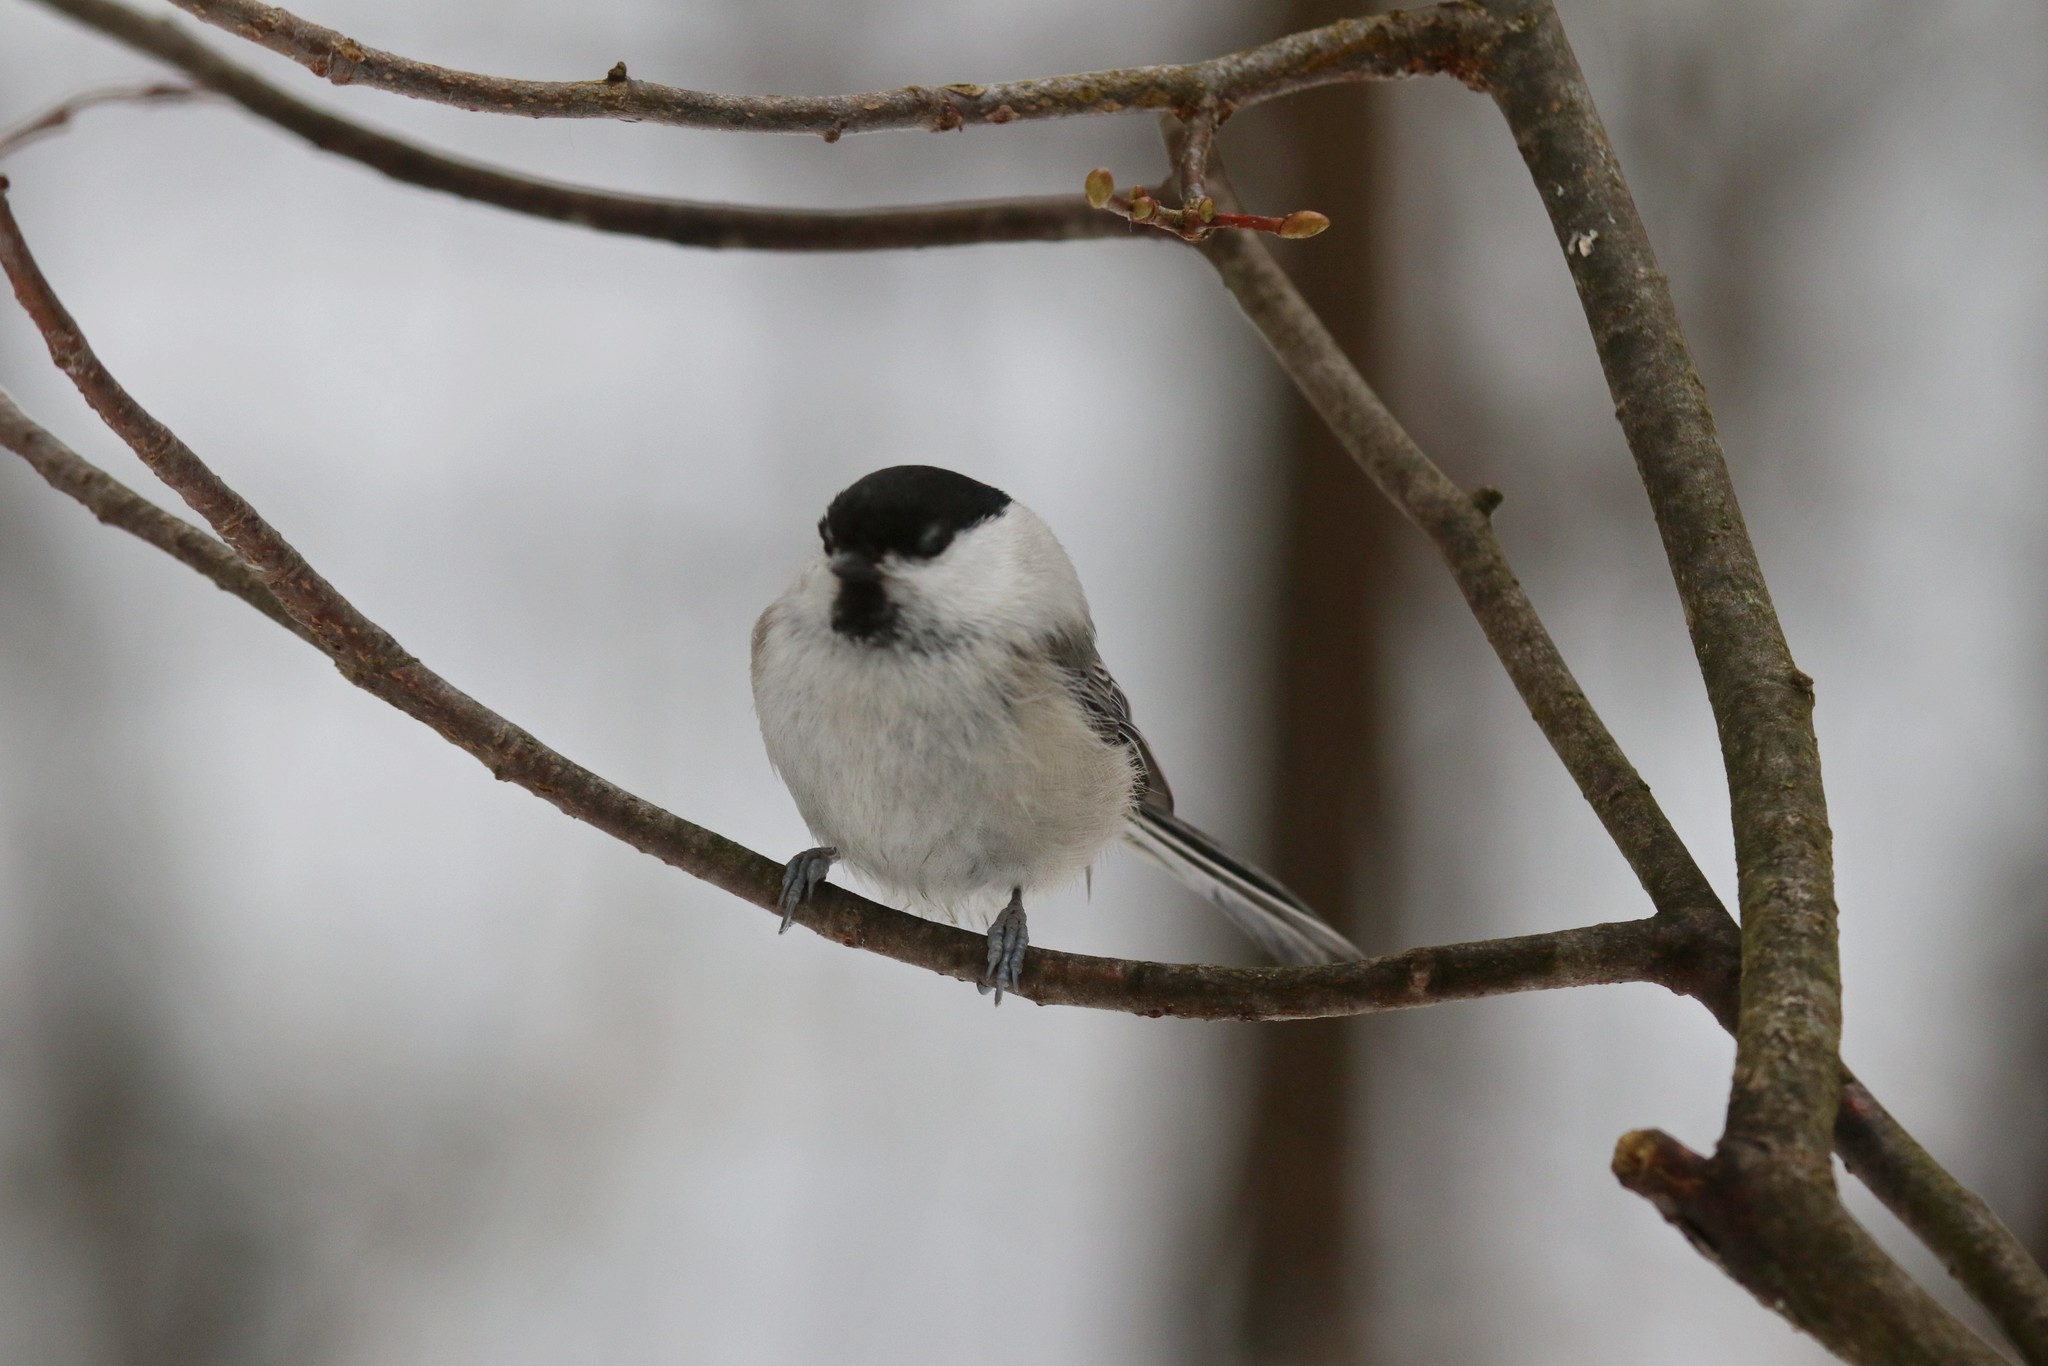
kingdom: Animalia
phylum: Chordata
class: Aves
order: Passeriformes
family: Paridae
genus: Poecile
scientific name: Poecile montanus
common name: Willow tit
